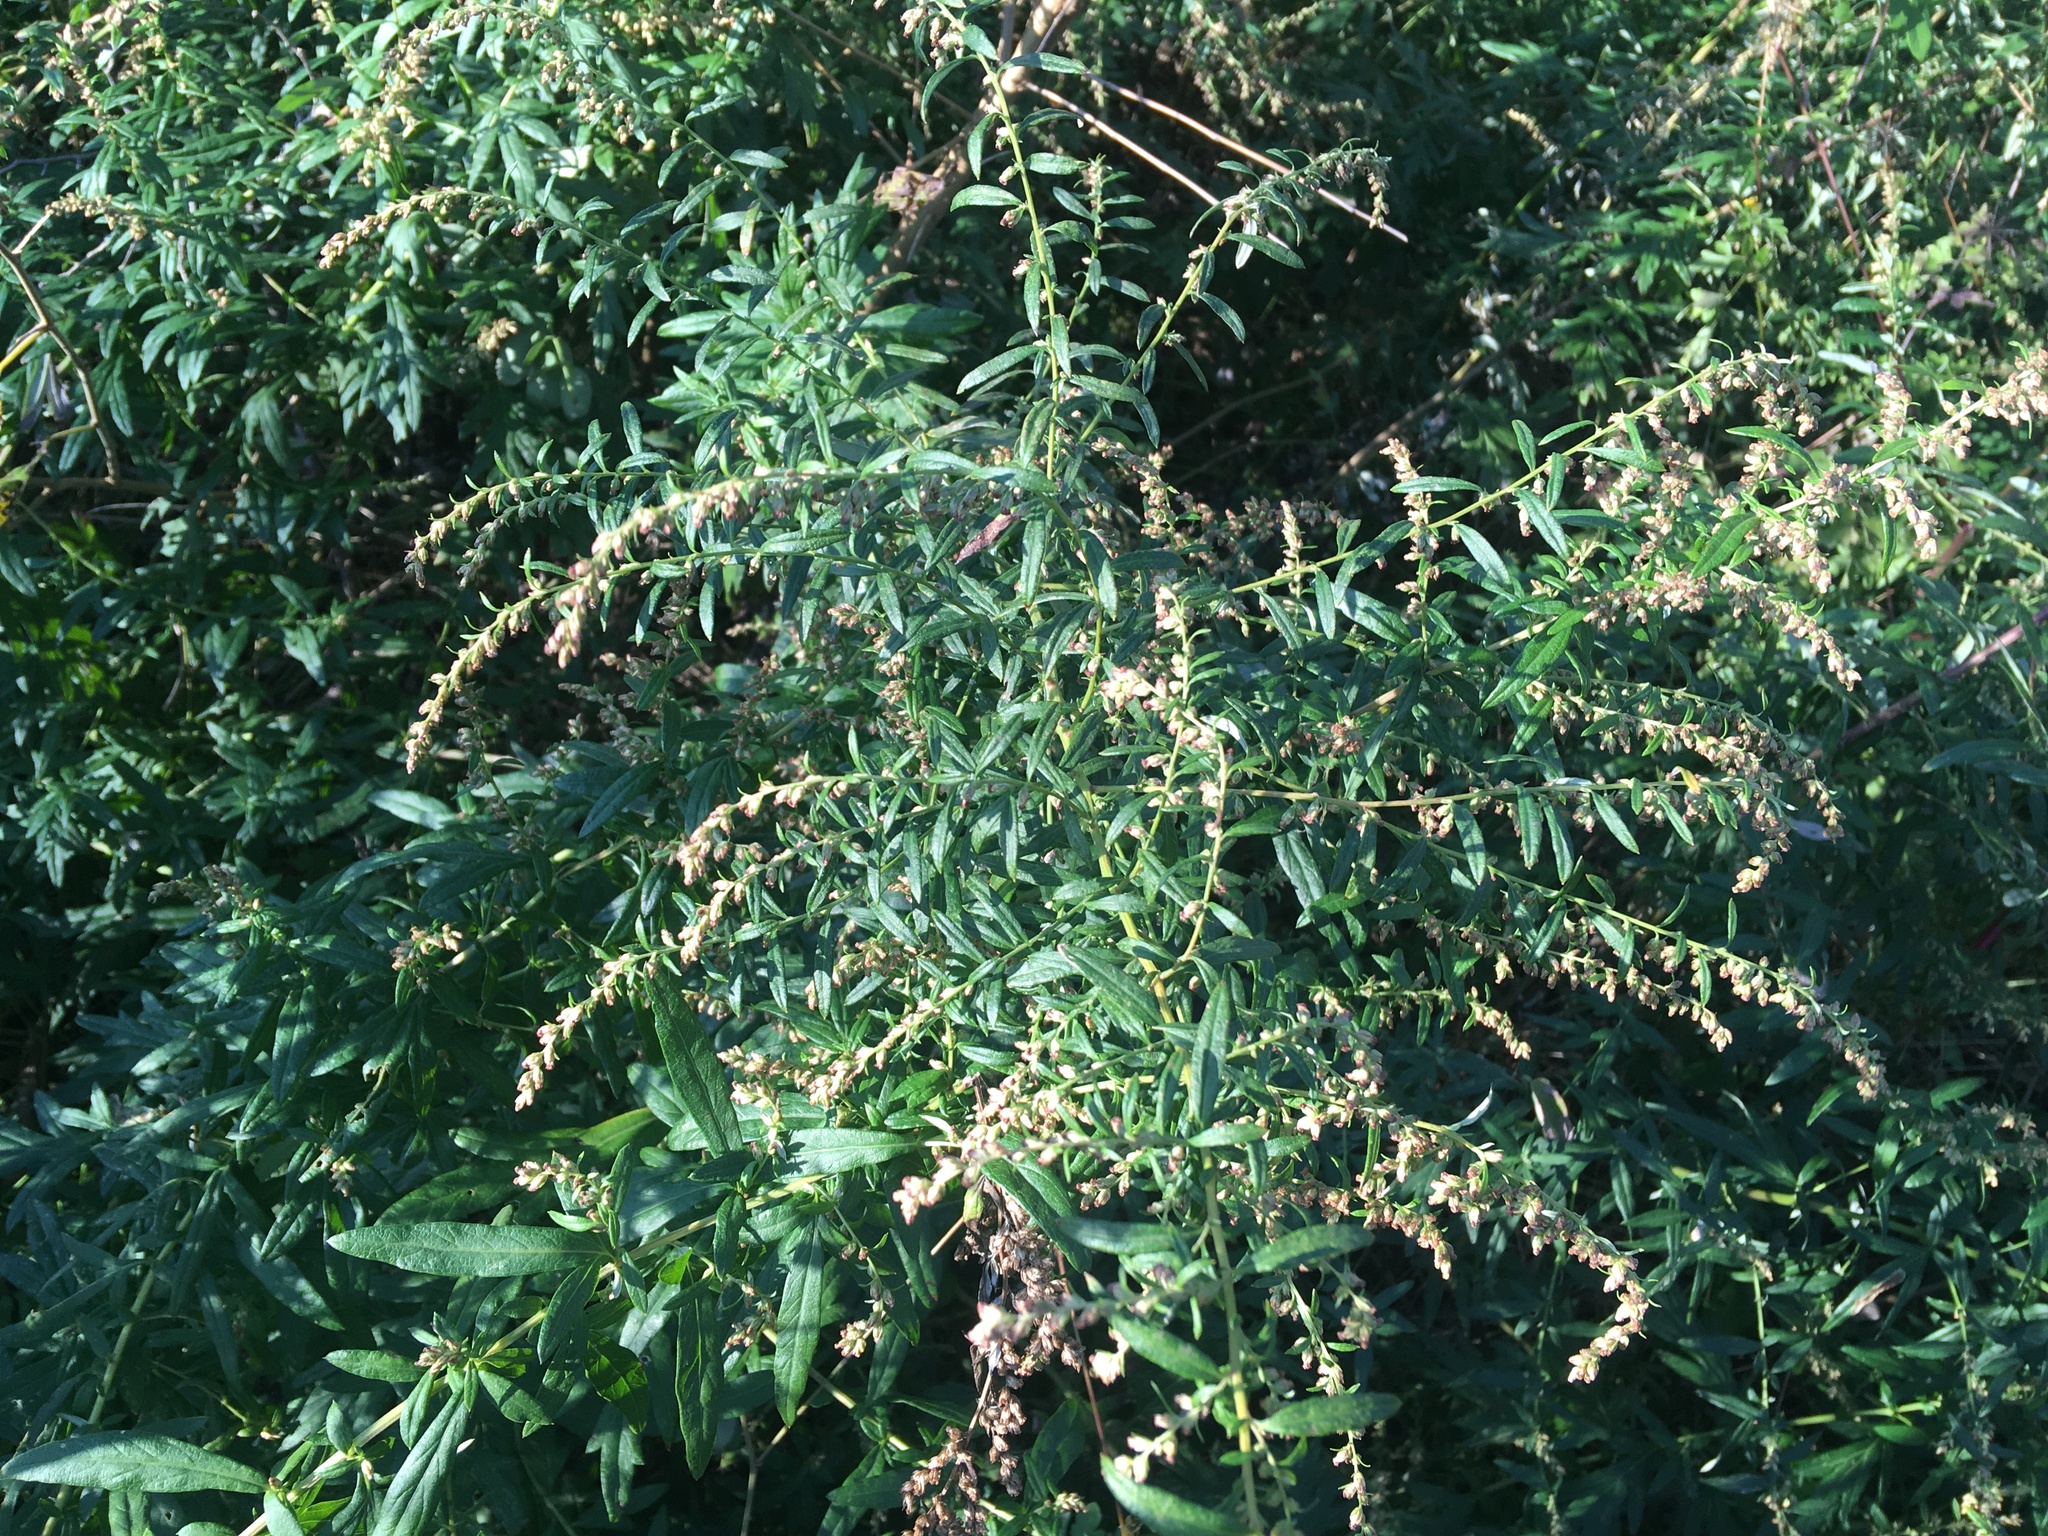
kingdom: Plantae
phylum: Tracheophyta
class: Magnoliopsida
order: Asterales
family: Asteraceae
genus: Artemisia
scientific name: Artemisia vulgaris
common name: Mugwort
